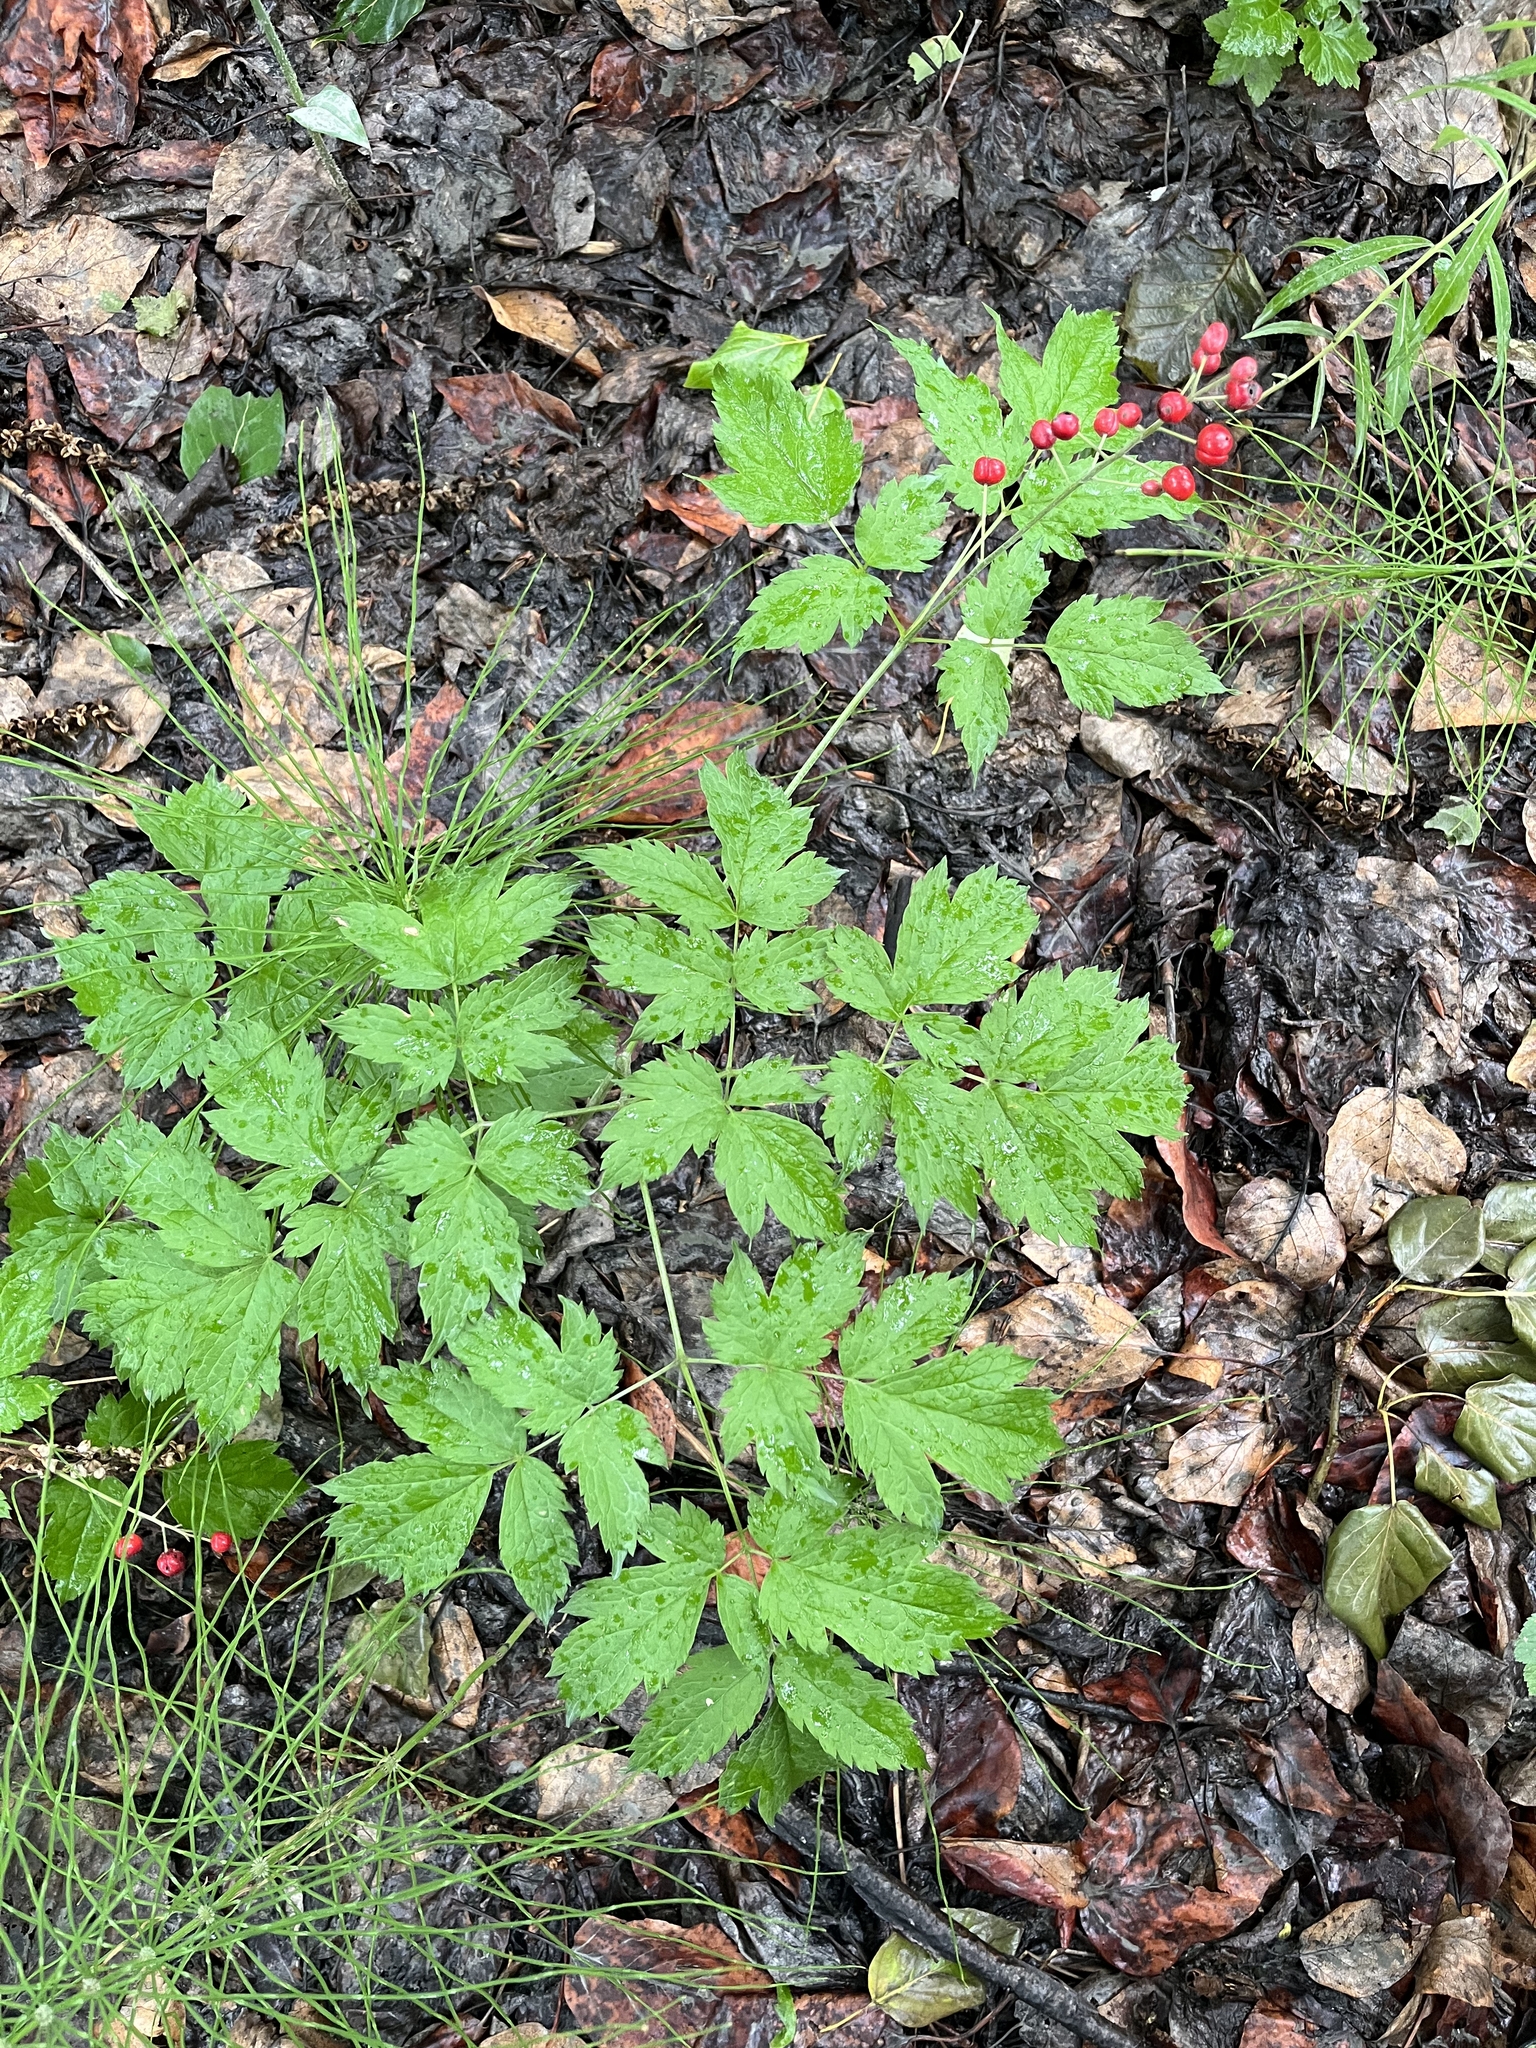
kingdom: Plantae
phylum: Tracheophyta
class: Magnoliopsida
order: Ranunculales
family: Ranunculaceae
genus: Actaea
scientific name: Actaea rubra
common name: Red baneberry
